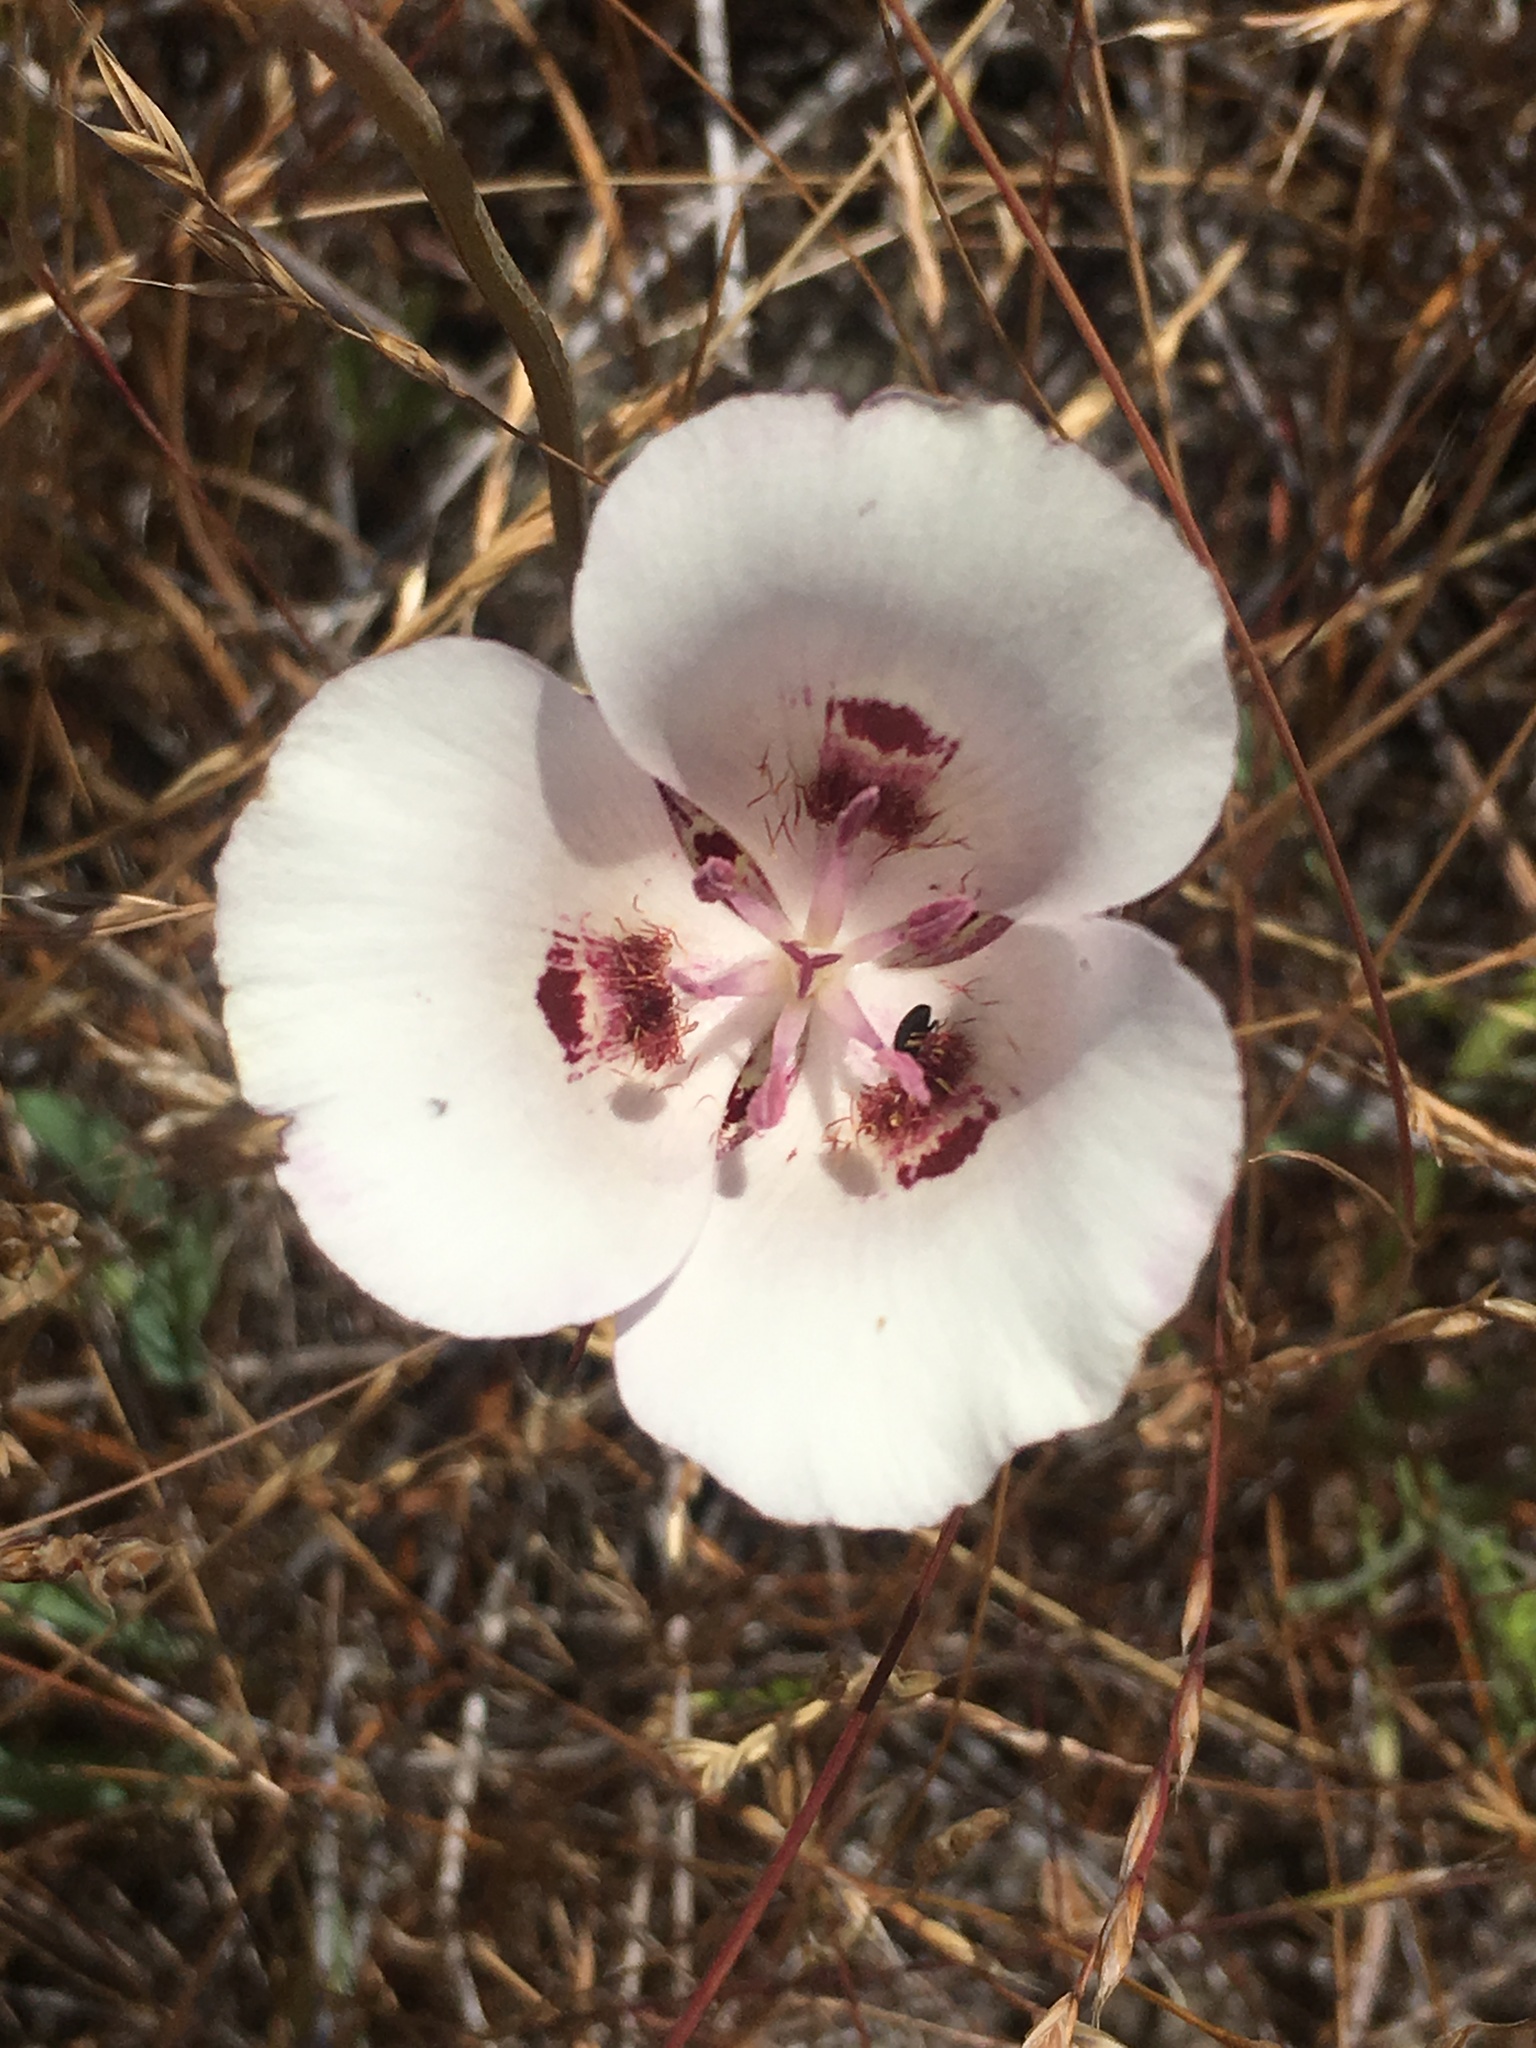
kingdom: Plantae
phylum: Tracheophyta
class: Liliopsida
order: Liliales
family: Liliaceae
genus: Calochortus
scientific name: Calochortus argillosus
